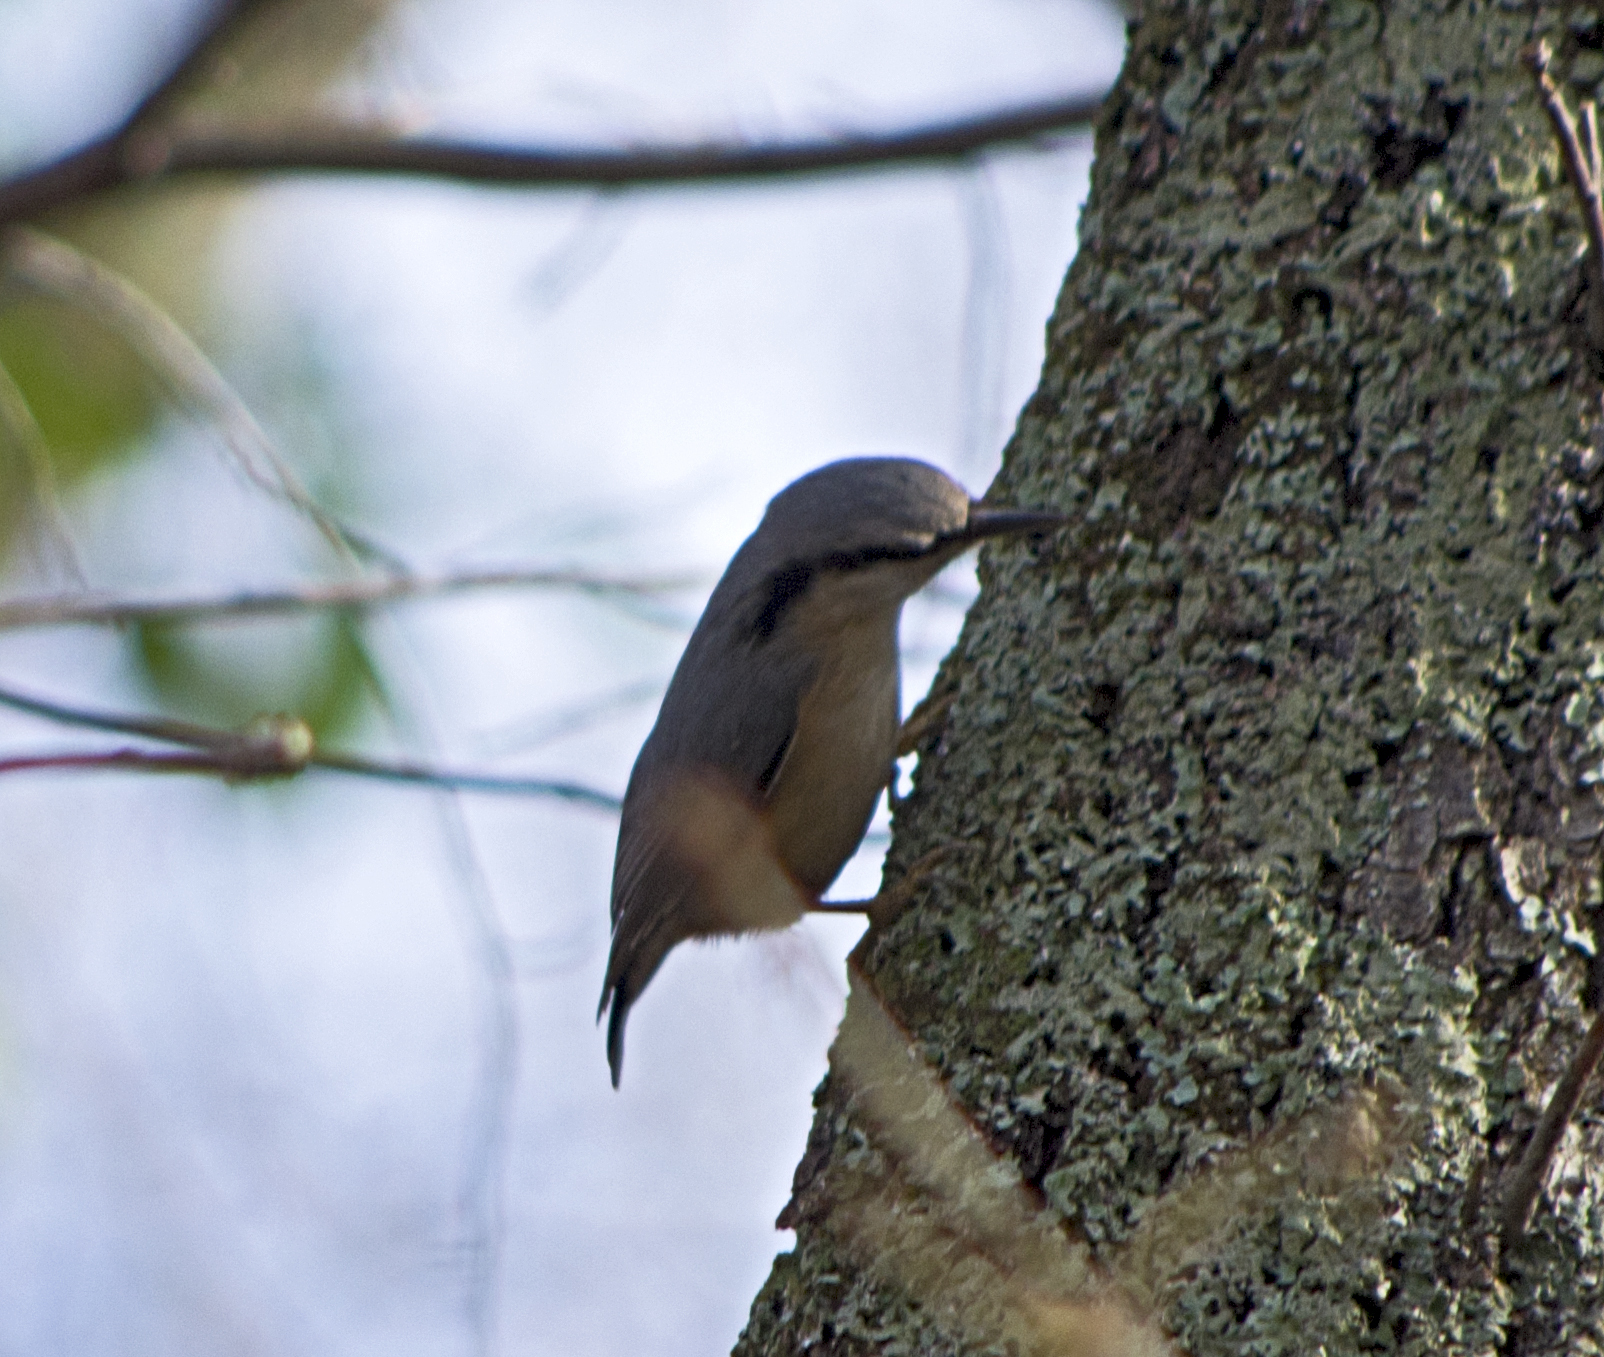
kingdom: Animalia
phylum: Chordata
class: Aves
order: Passeriformes
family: Sittidae
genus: Sitta
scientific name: Sitta europaea
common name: Eurasian nuthatch
